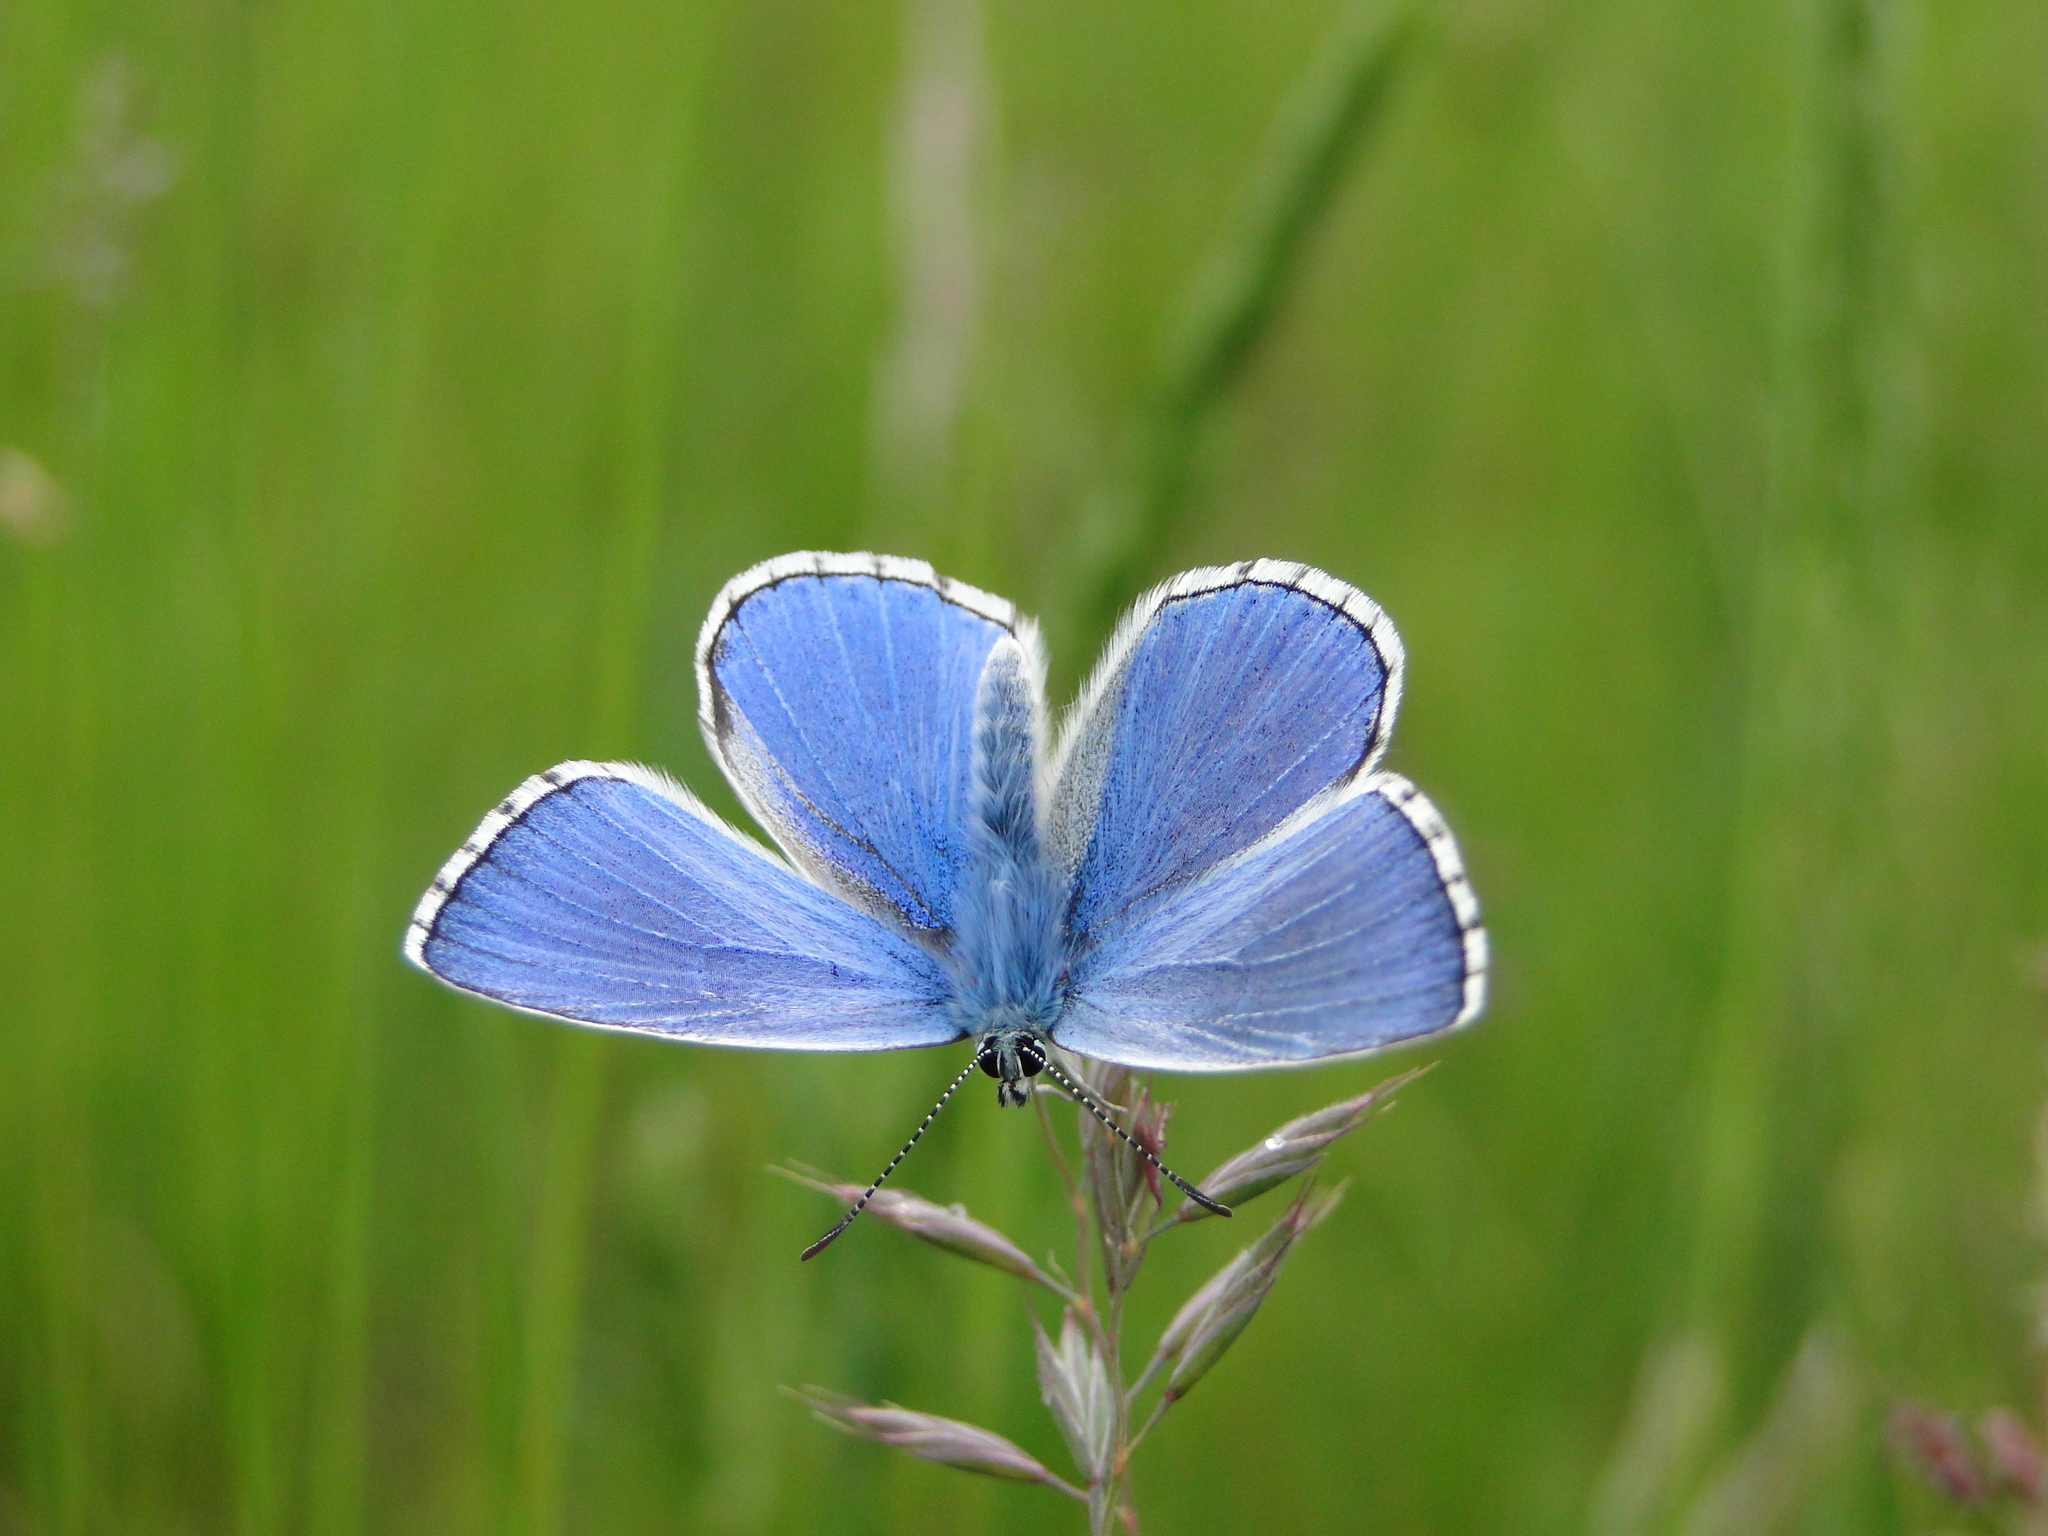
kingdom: Animalia
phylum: Arthropoda
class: Insecta
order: Lepidoptera
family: Lycaenidae
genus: Lysandra
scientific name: Lysandra bellargus
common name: Adonis blue
